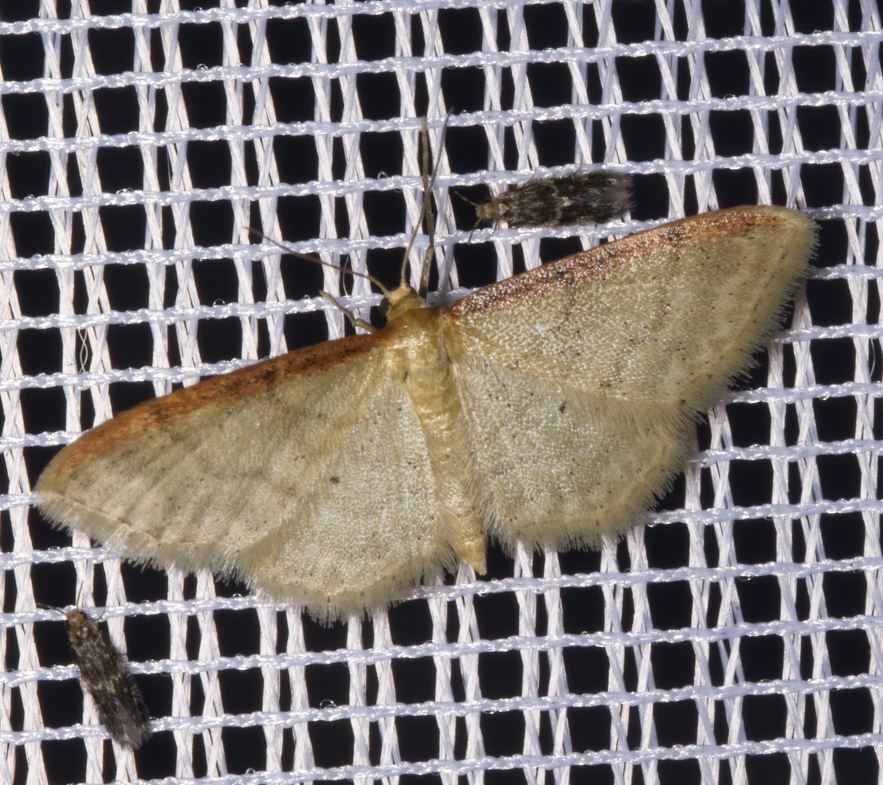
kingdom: Animalia
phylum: Arthropoda
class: Insecta
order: Lepidoptera
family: Geometridae
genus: Idaea
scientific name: Idaea humiliata
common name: Isle of wight wave
